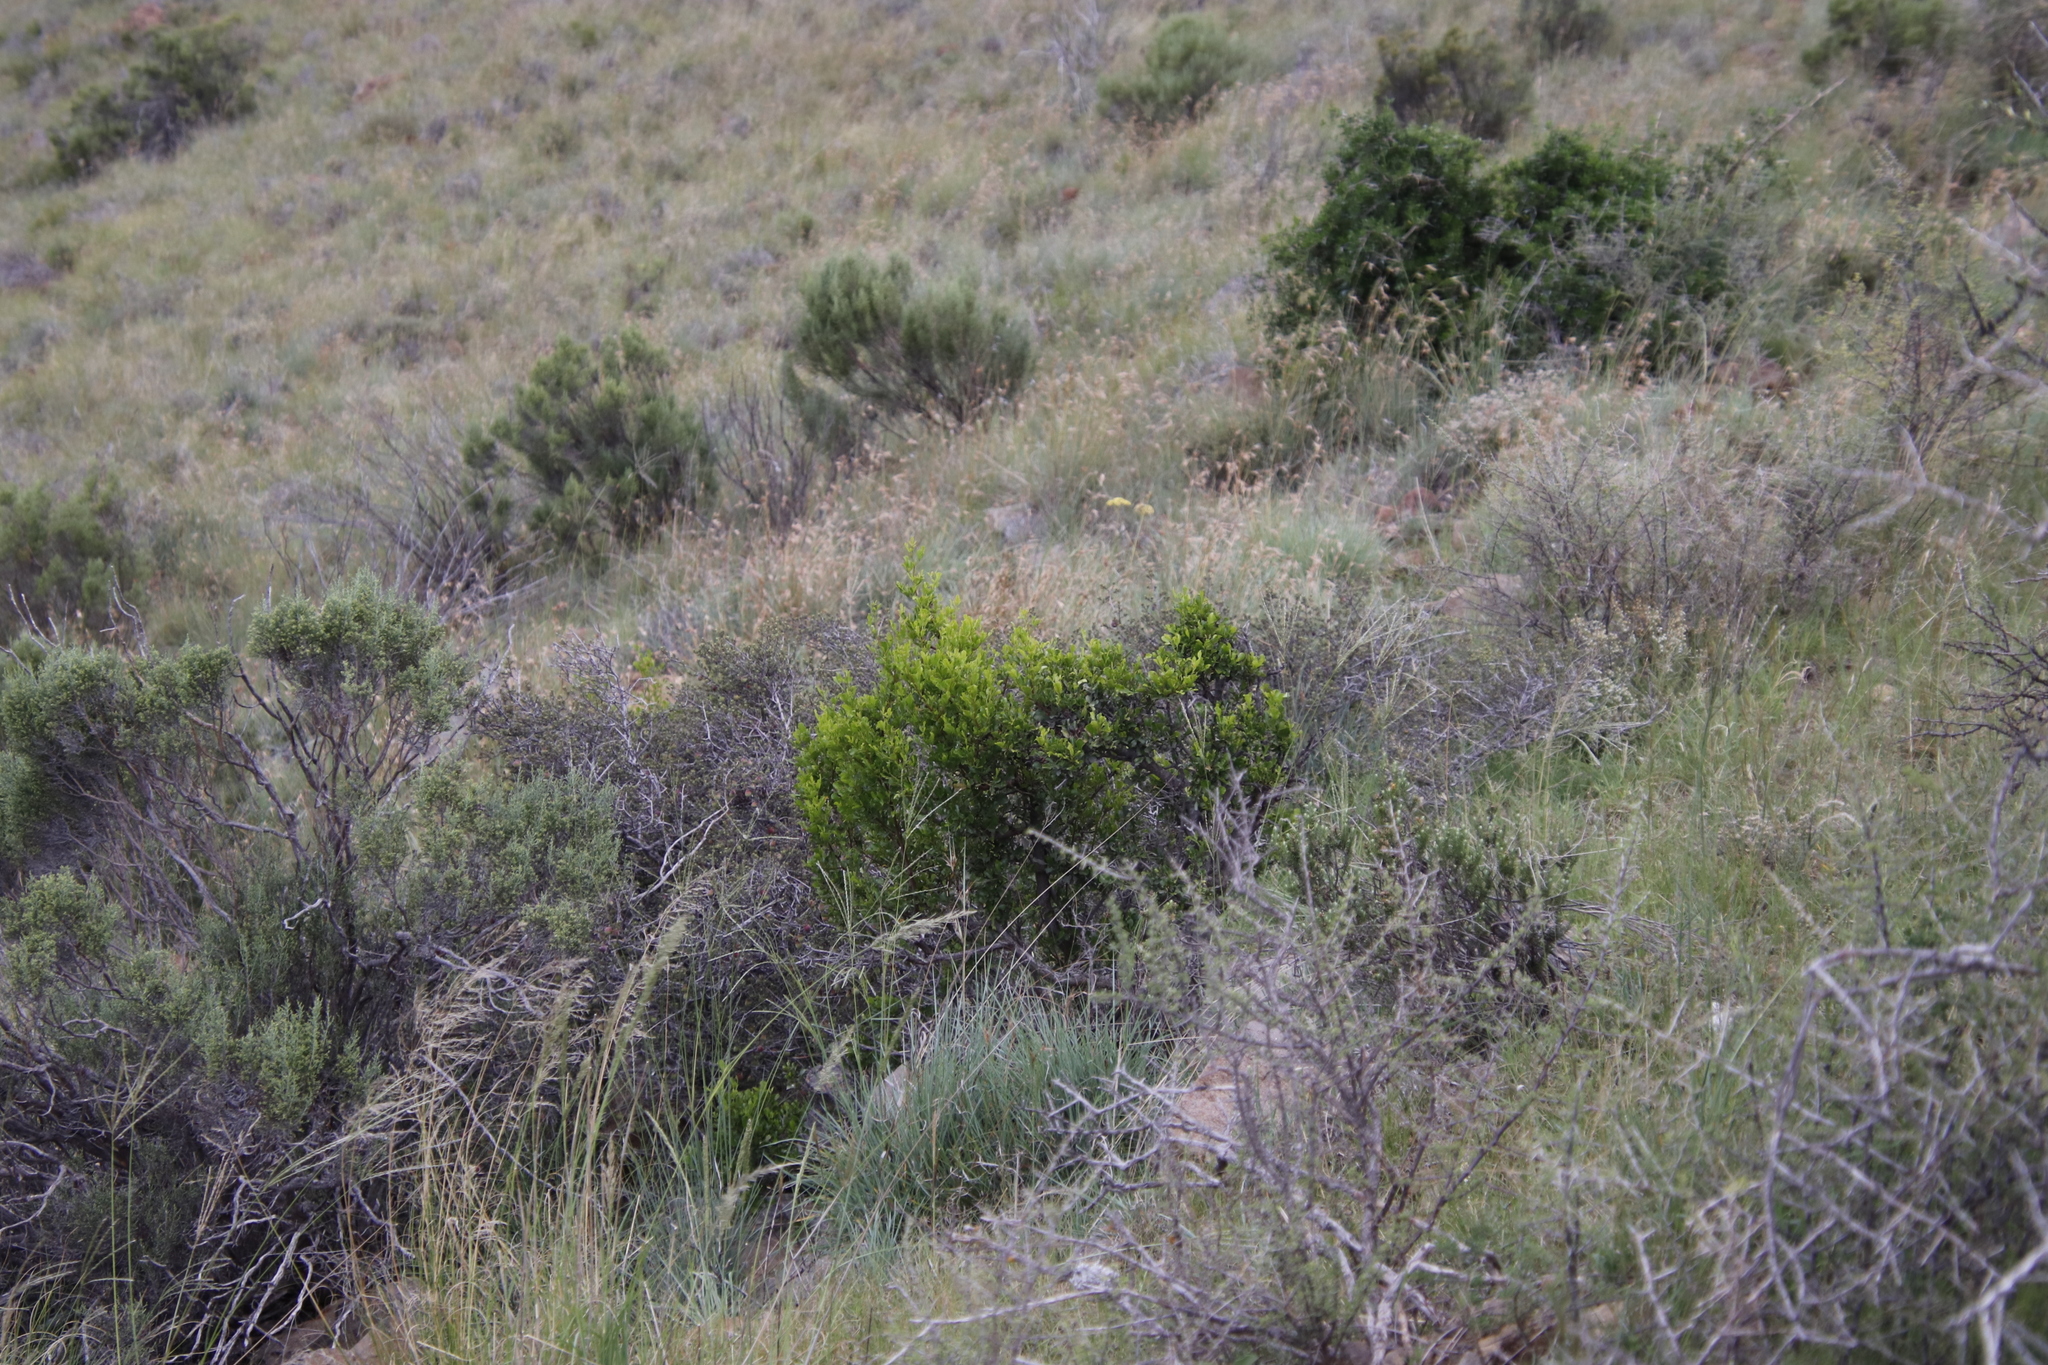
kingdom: Plantae
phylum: Tracheophyta
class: Magnoliopsida
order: Sapindales
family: Anacardiaceae
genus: Searsia
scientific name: Searsia pallens
